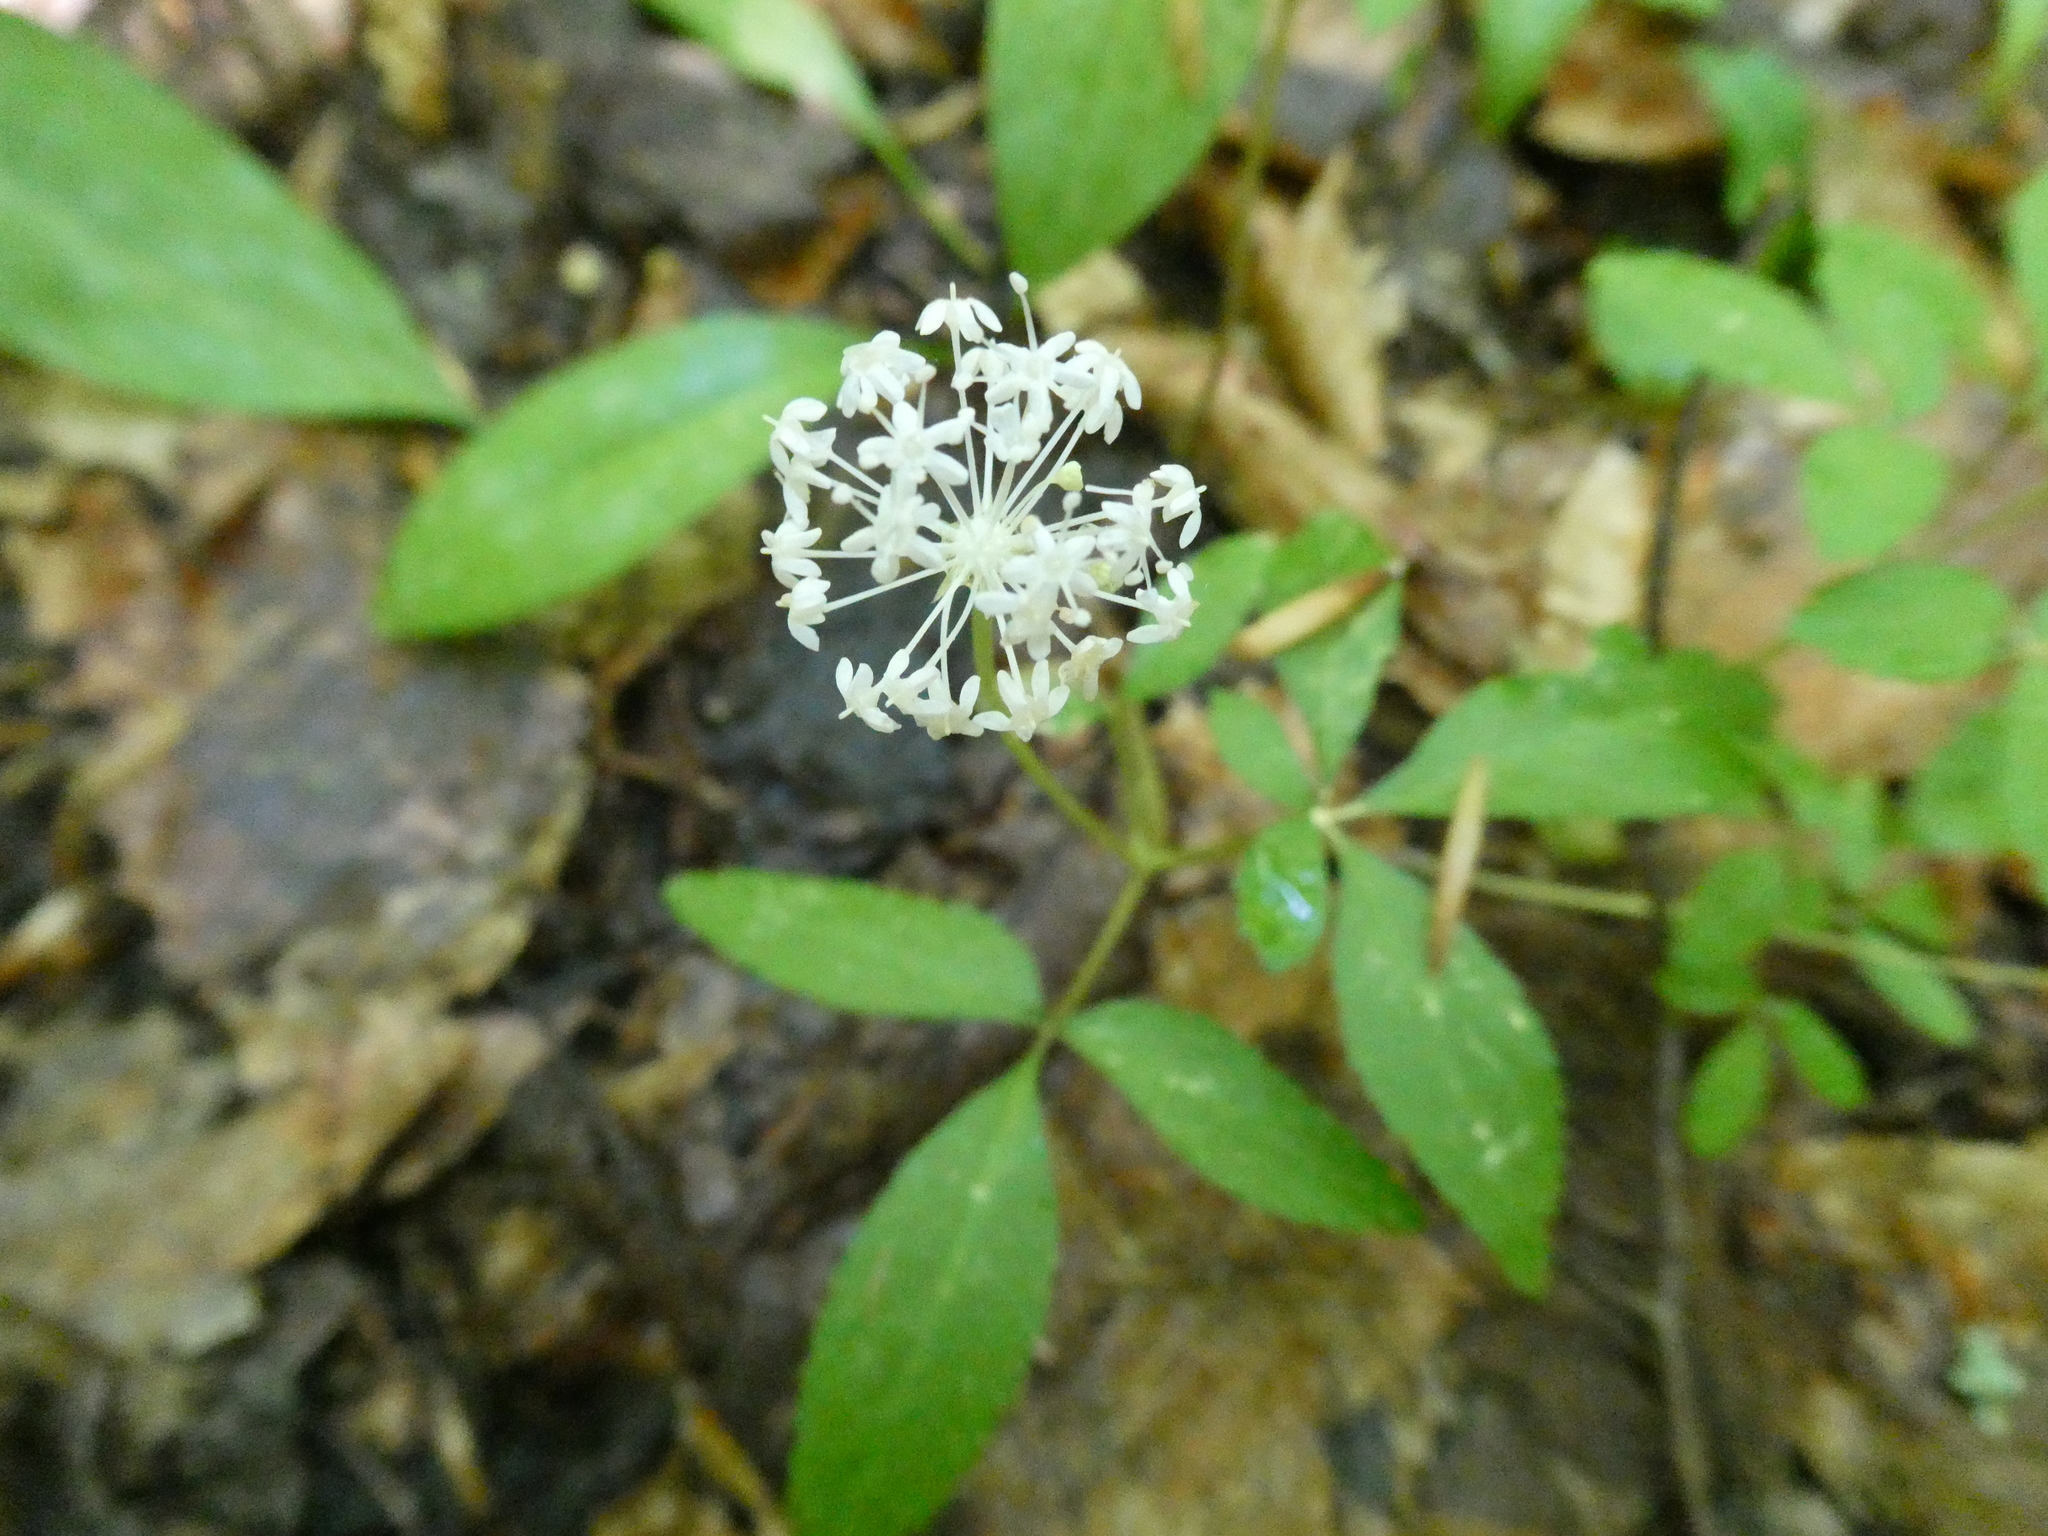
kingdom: Plantae
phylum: Tracheophyta
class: Magnoliopsida
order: Apiales
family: Araliaceae
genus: Panax
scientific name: Panax trifolius
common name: Dwarf ginseng
